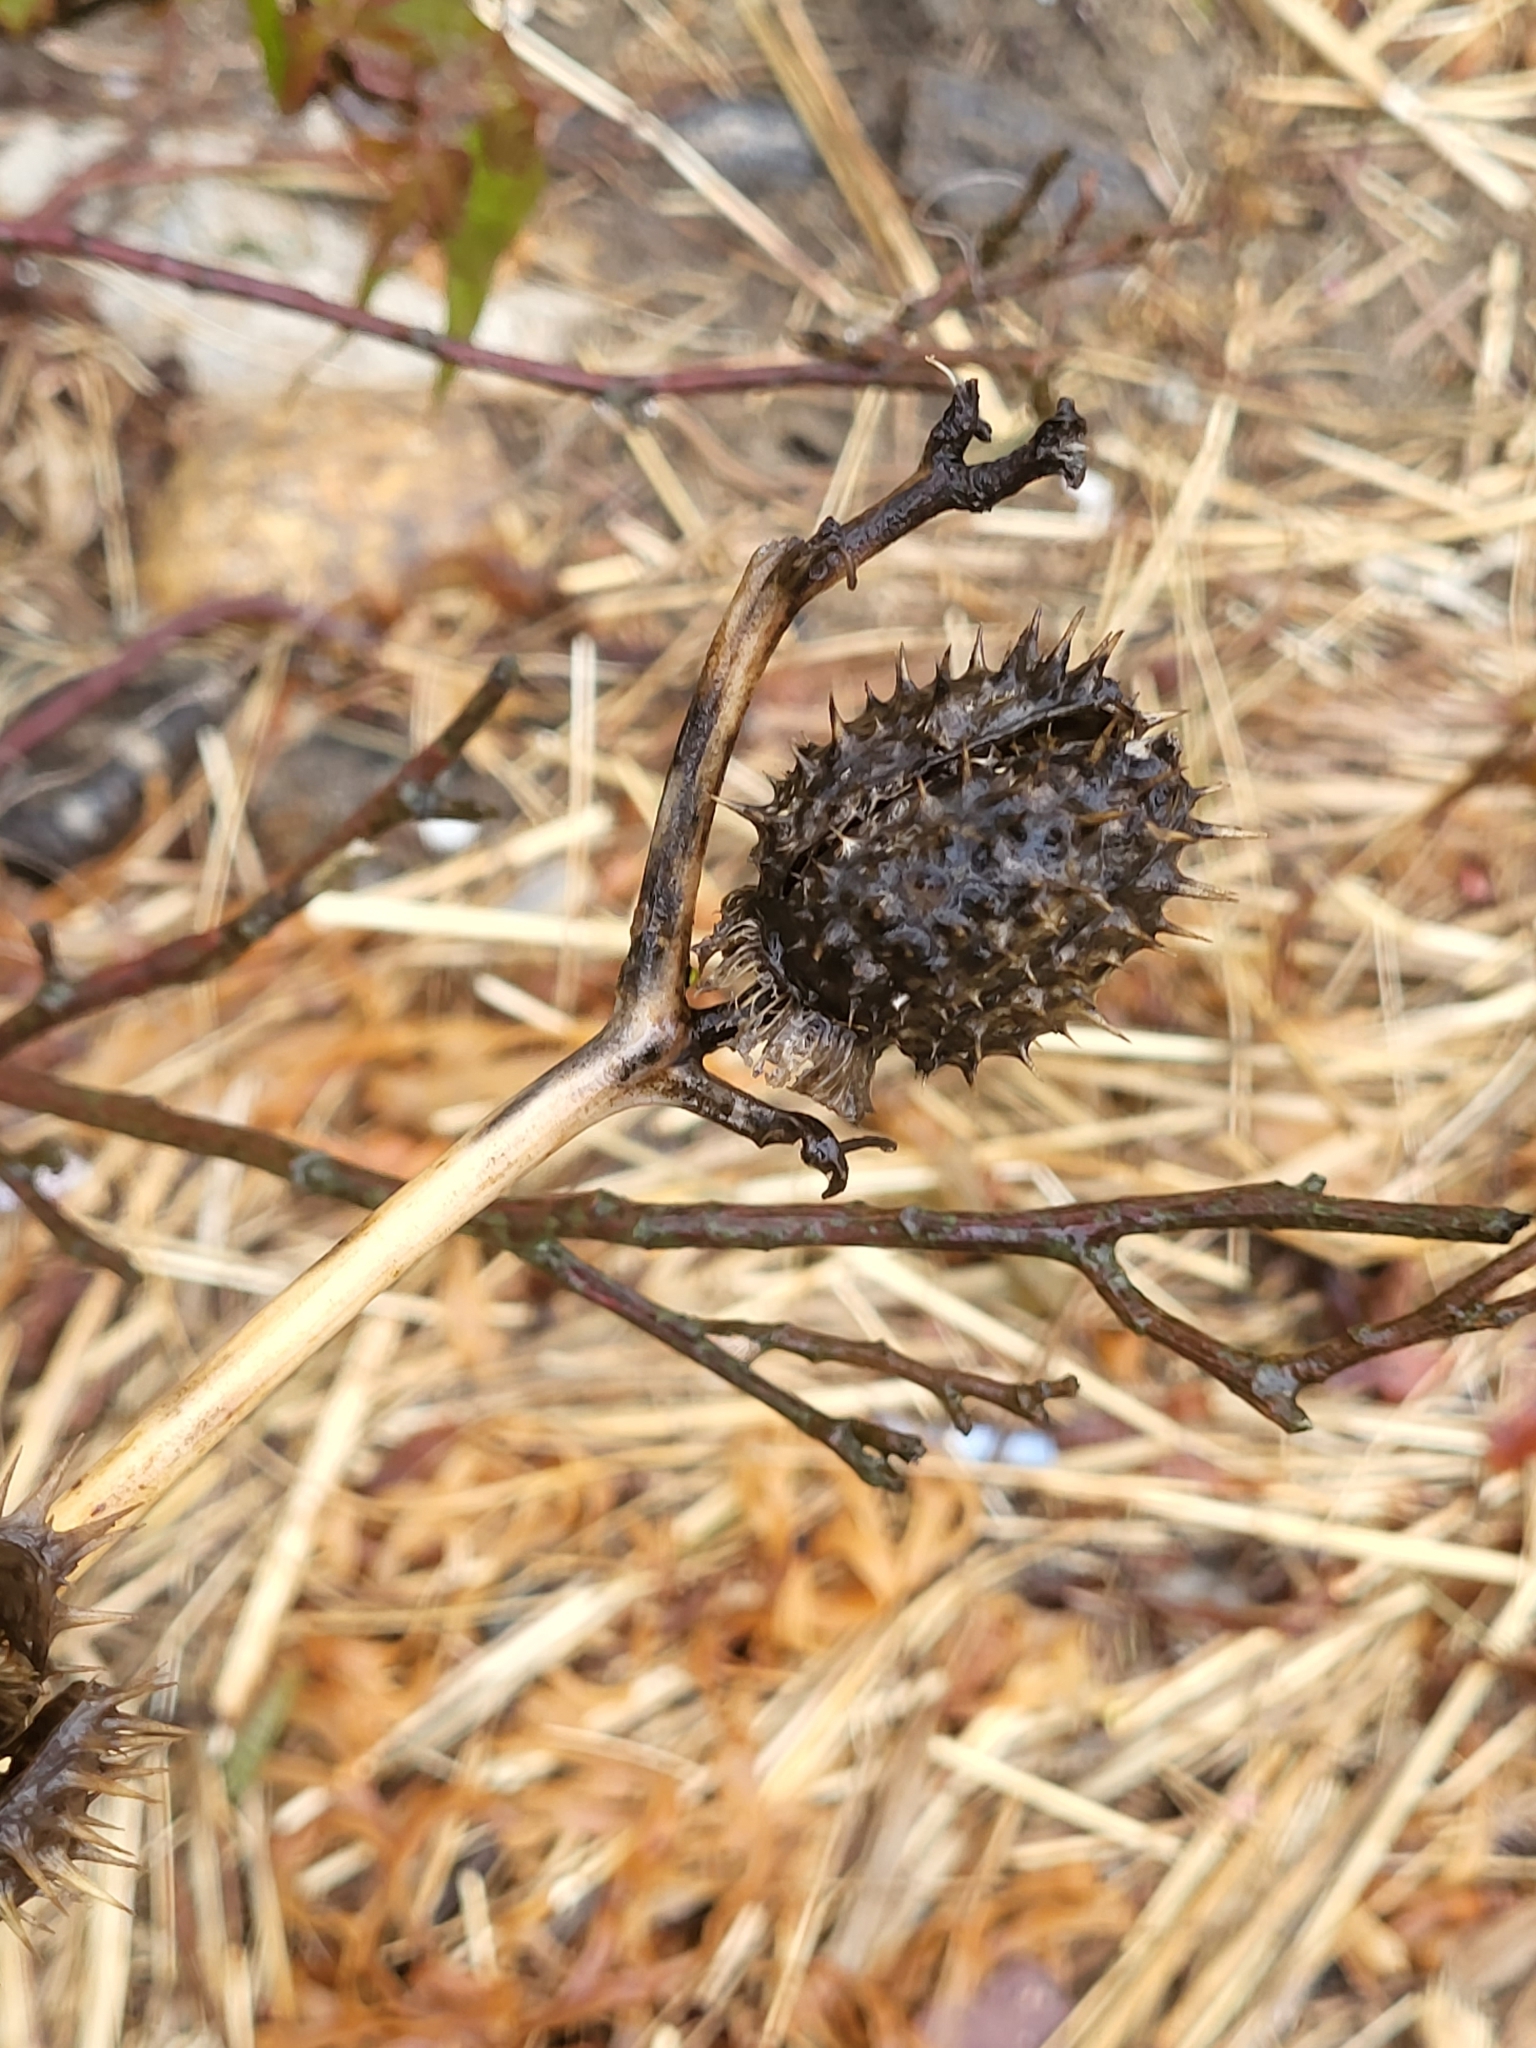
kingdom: Plantae
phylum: Tracheophyta
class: Magnoliopsida
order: Solanales
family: Solanaceae
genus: Datura
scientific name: Datura stramonium
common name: Thorn-apple
